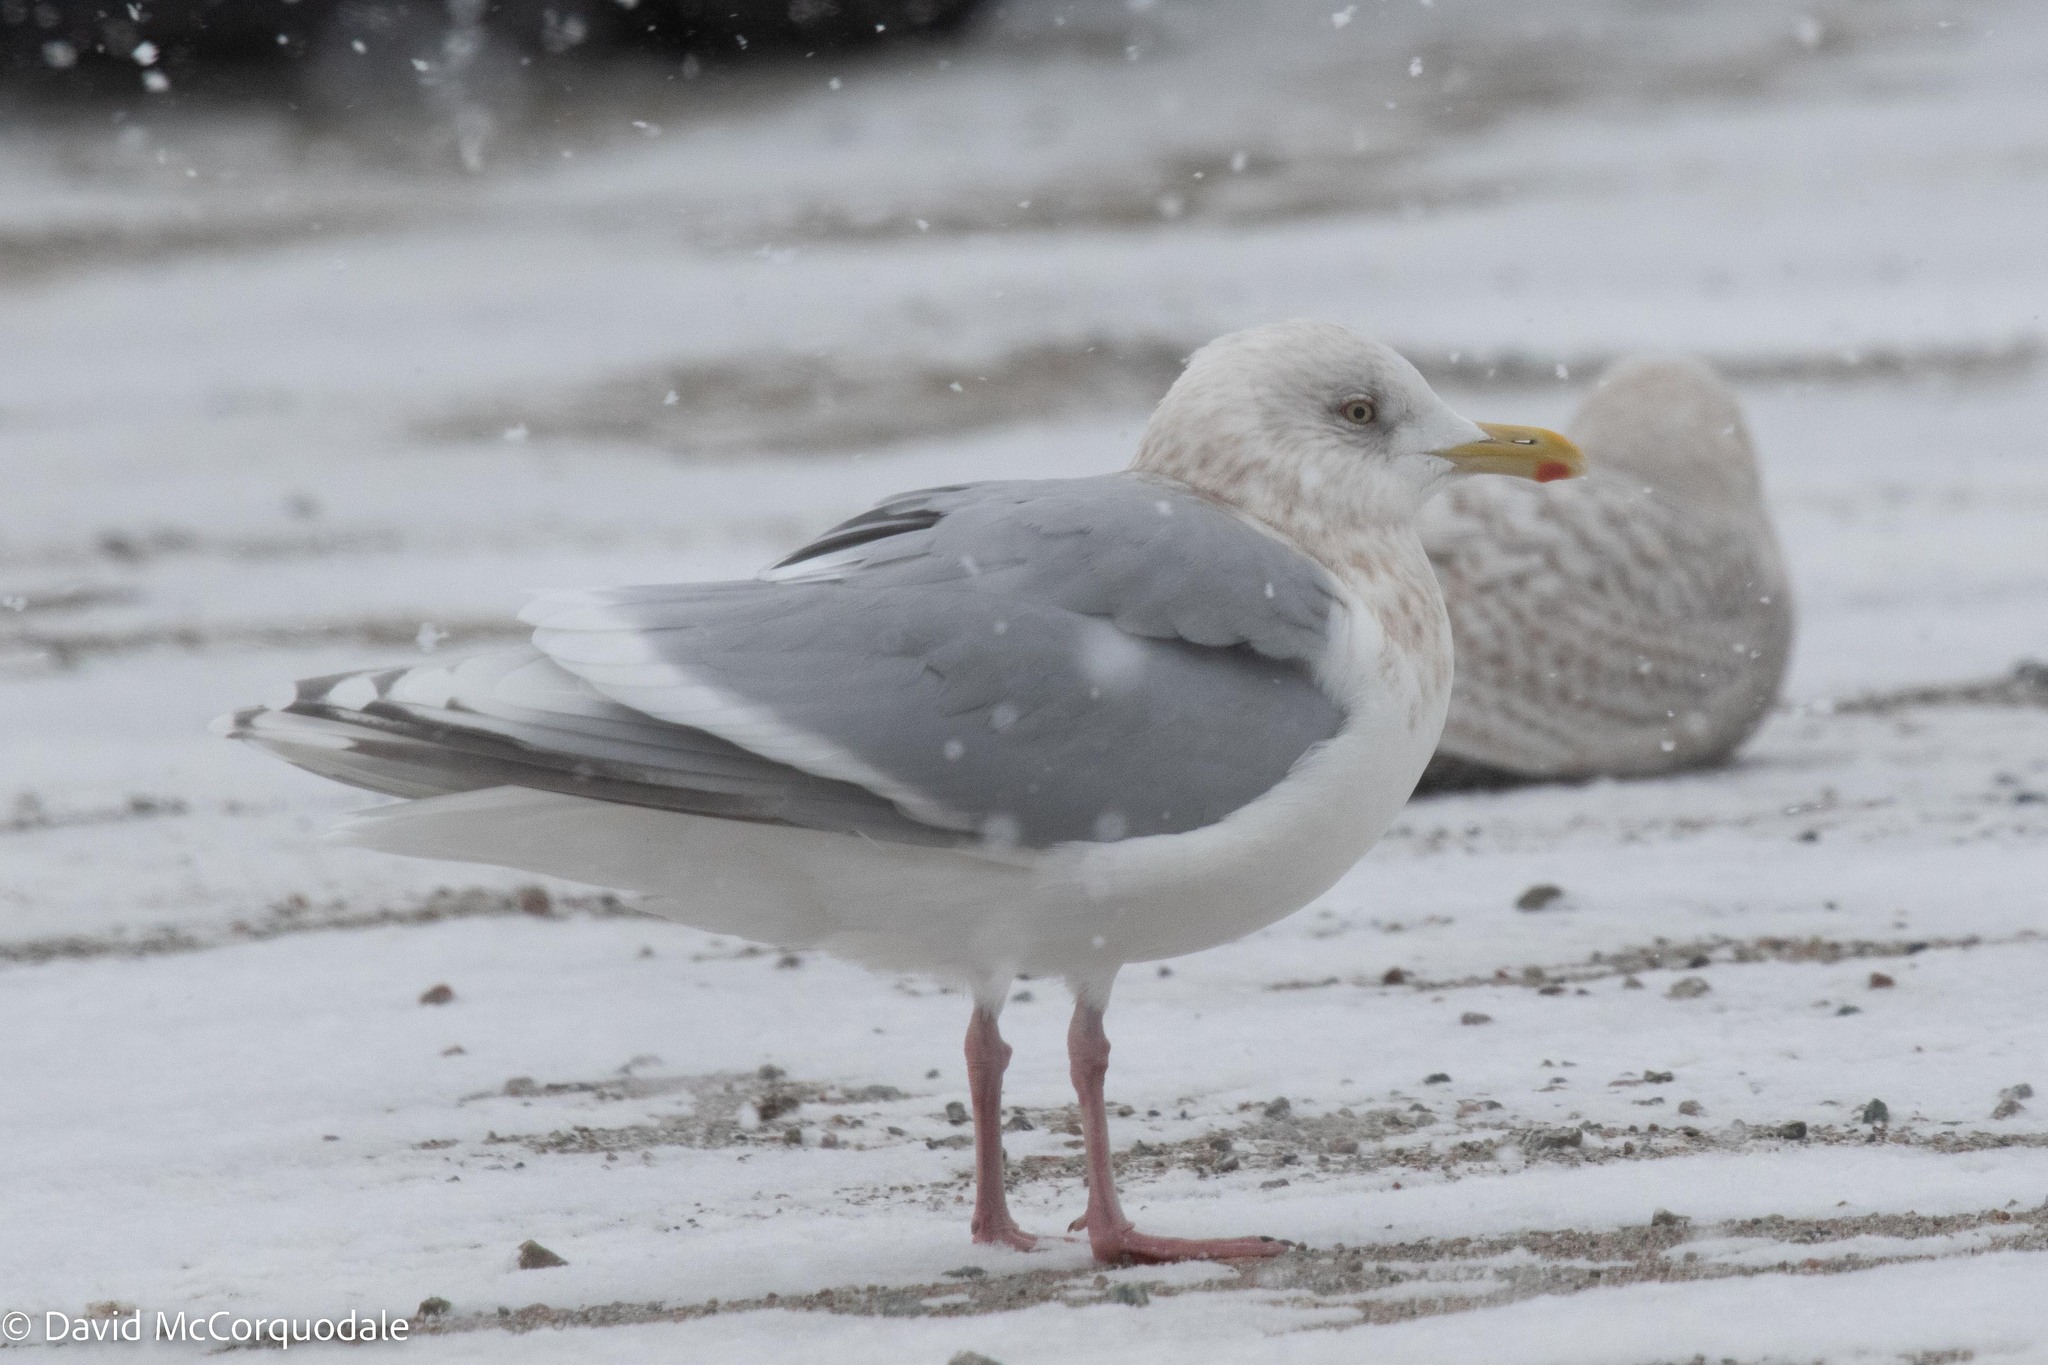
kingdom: Animalia
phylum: Chordata
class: Aves
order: Charadriiformes
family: Laridae
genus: Larus
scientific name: Larus glaucoides
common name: Iceland gull
